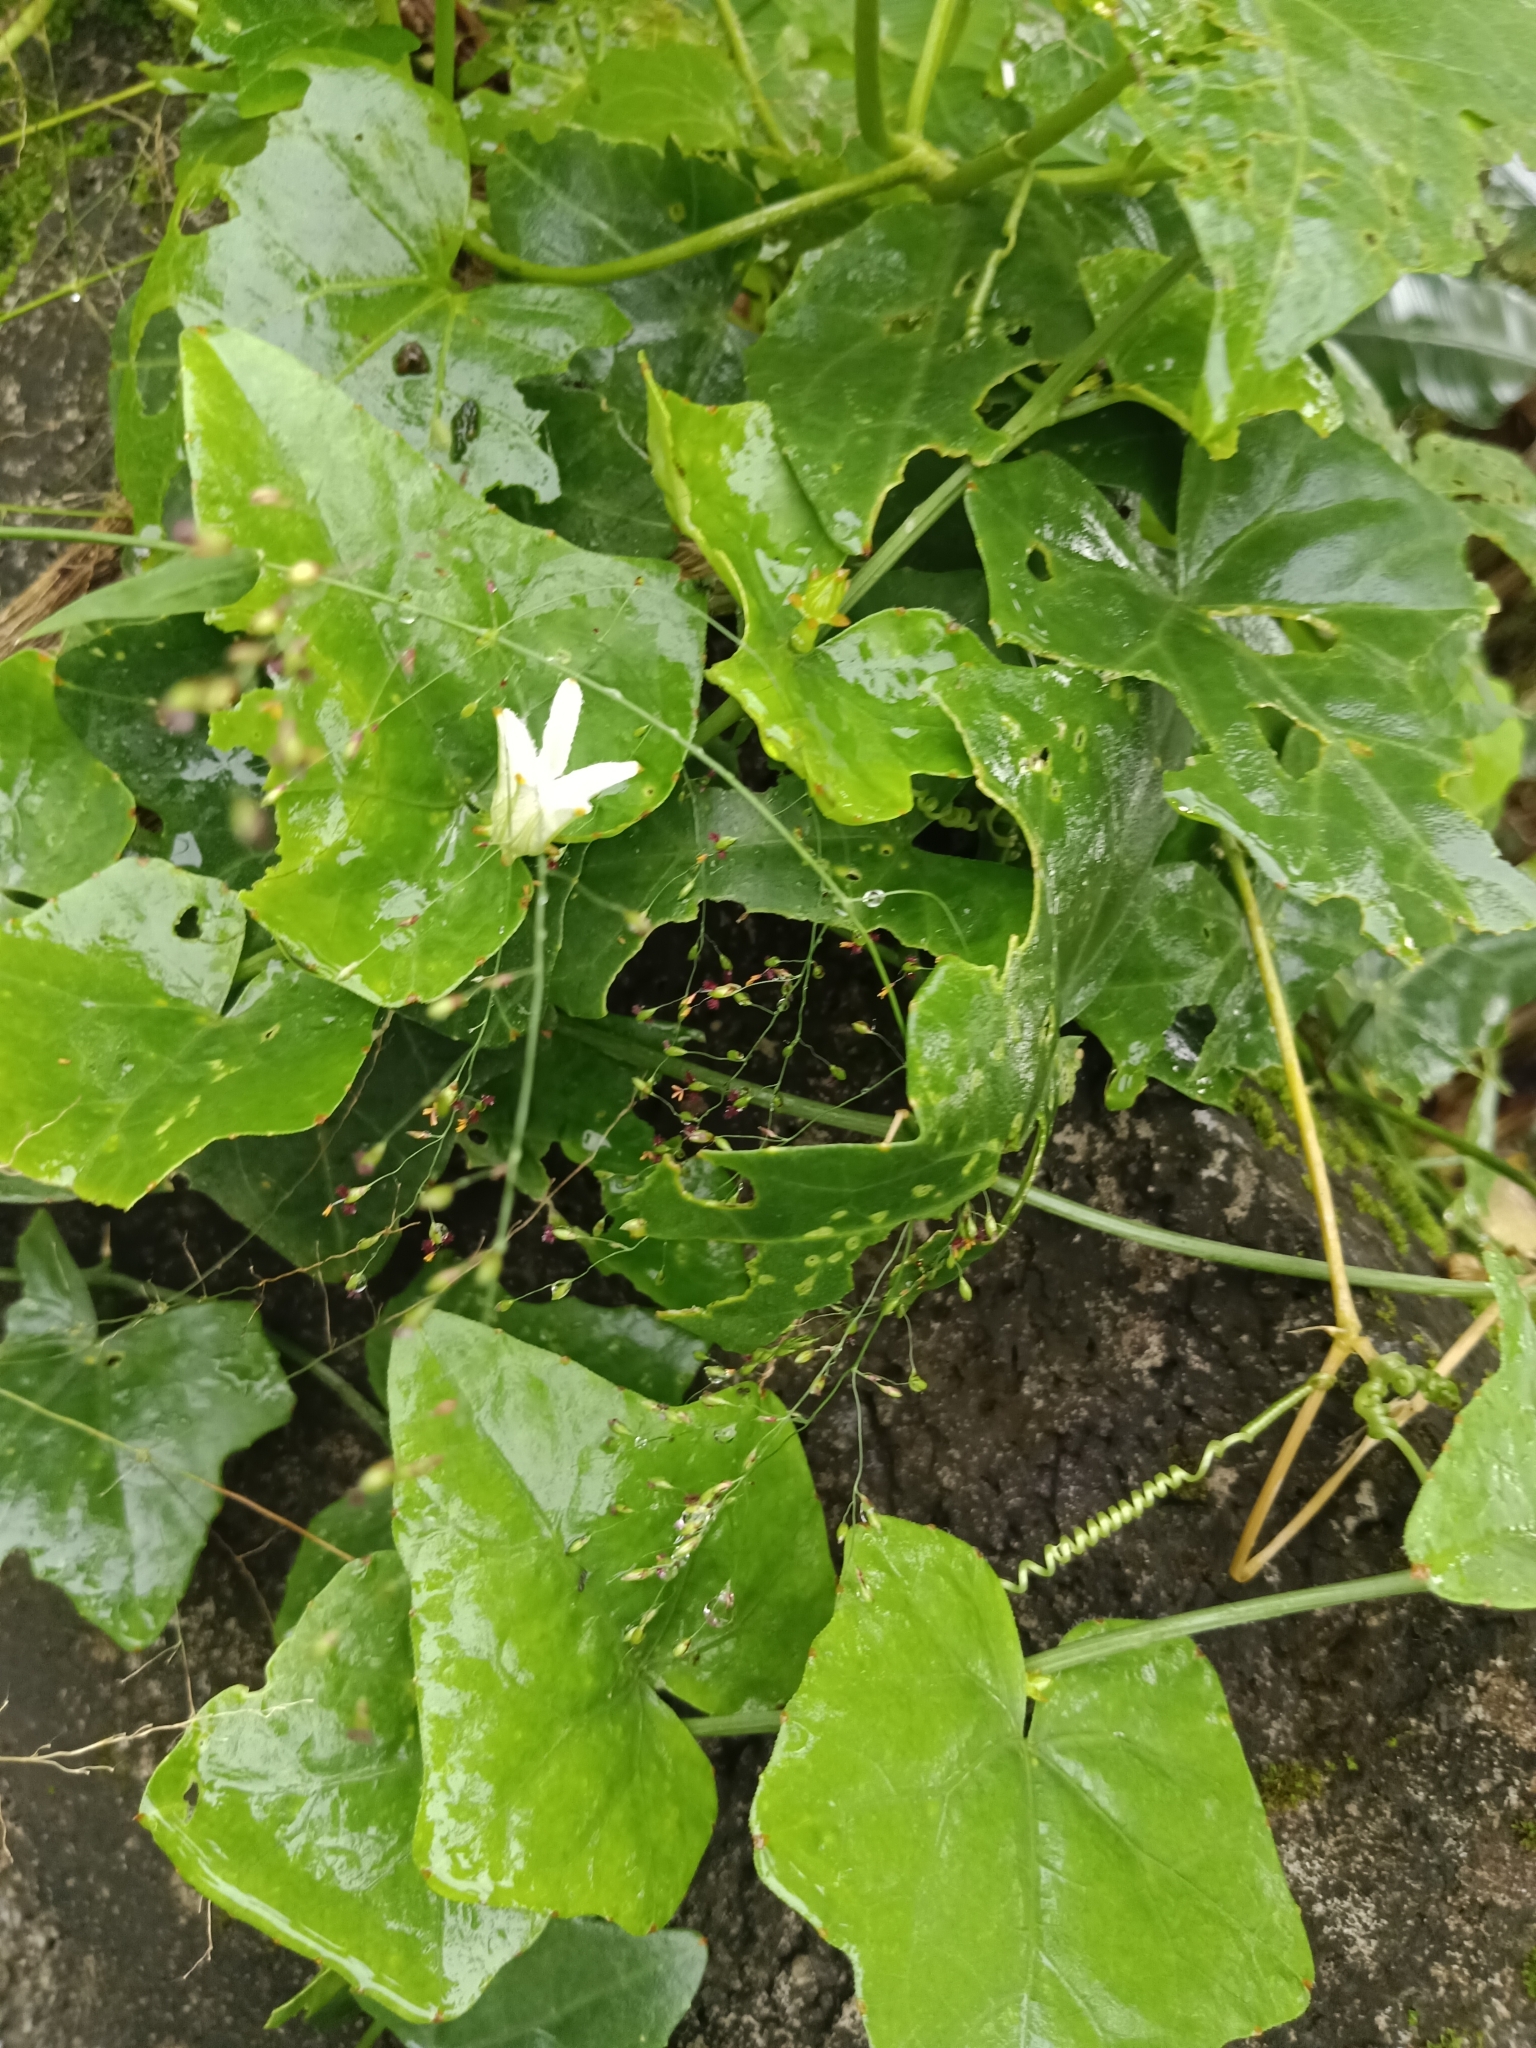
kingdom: Plantae
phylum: Tracheophyta
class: Magnoliopsida
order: Cucurbitales
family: Cucurbitaceae
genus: Coccinia
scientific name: Coccinia grandis
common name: Ivy gourd
